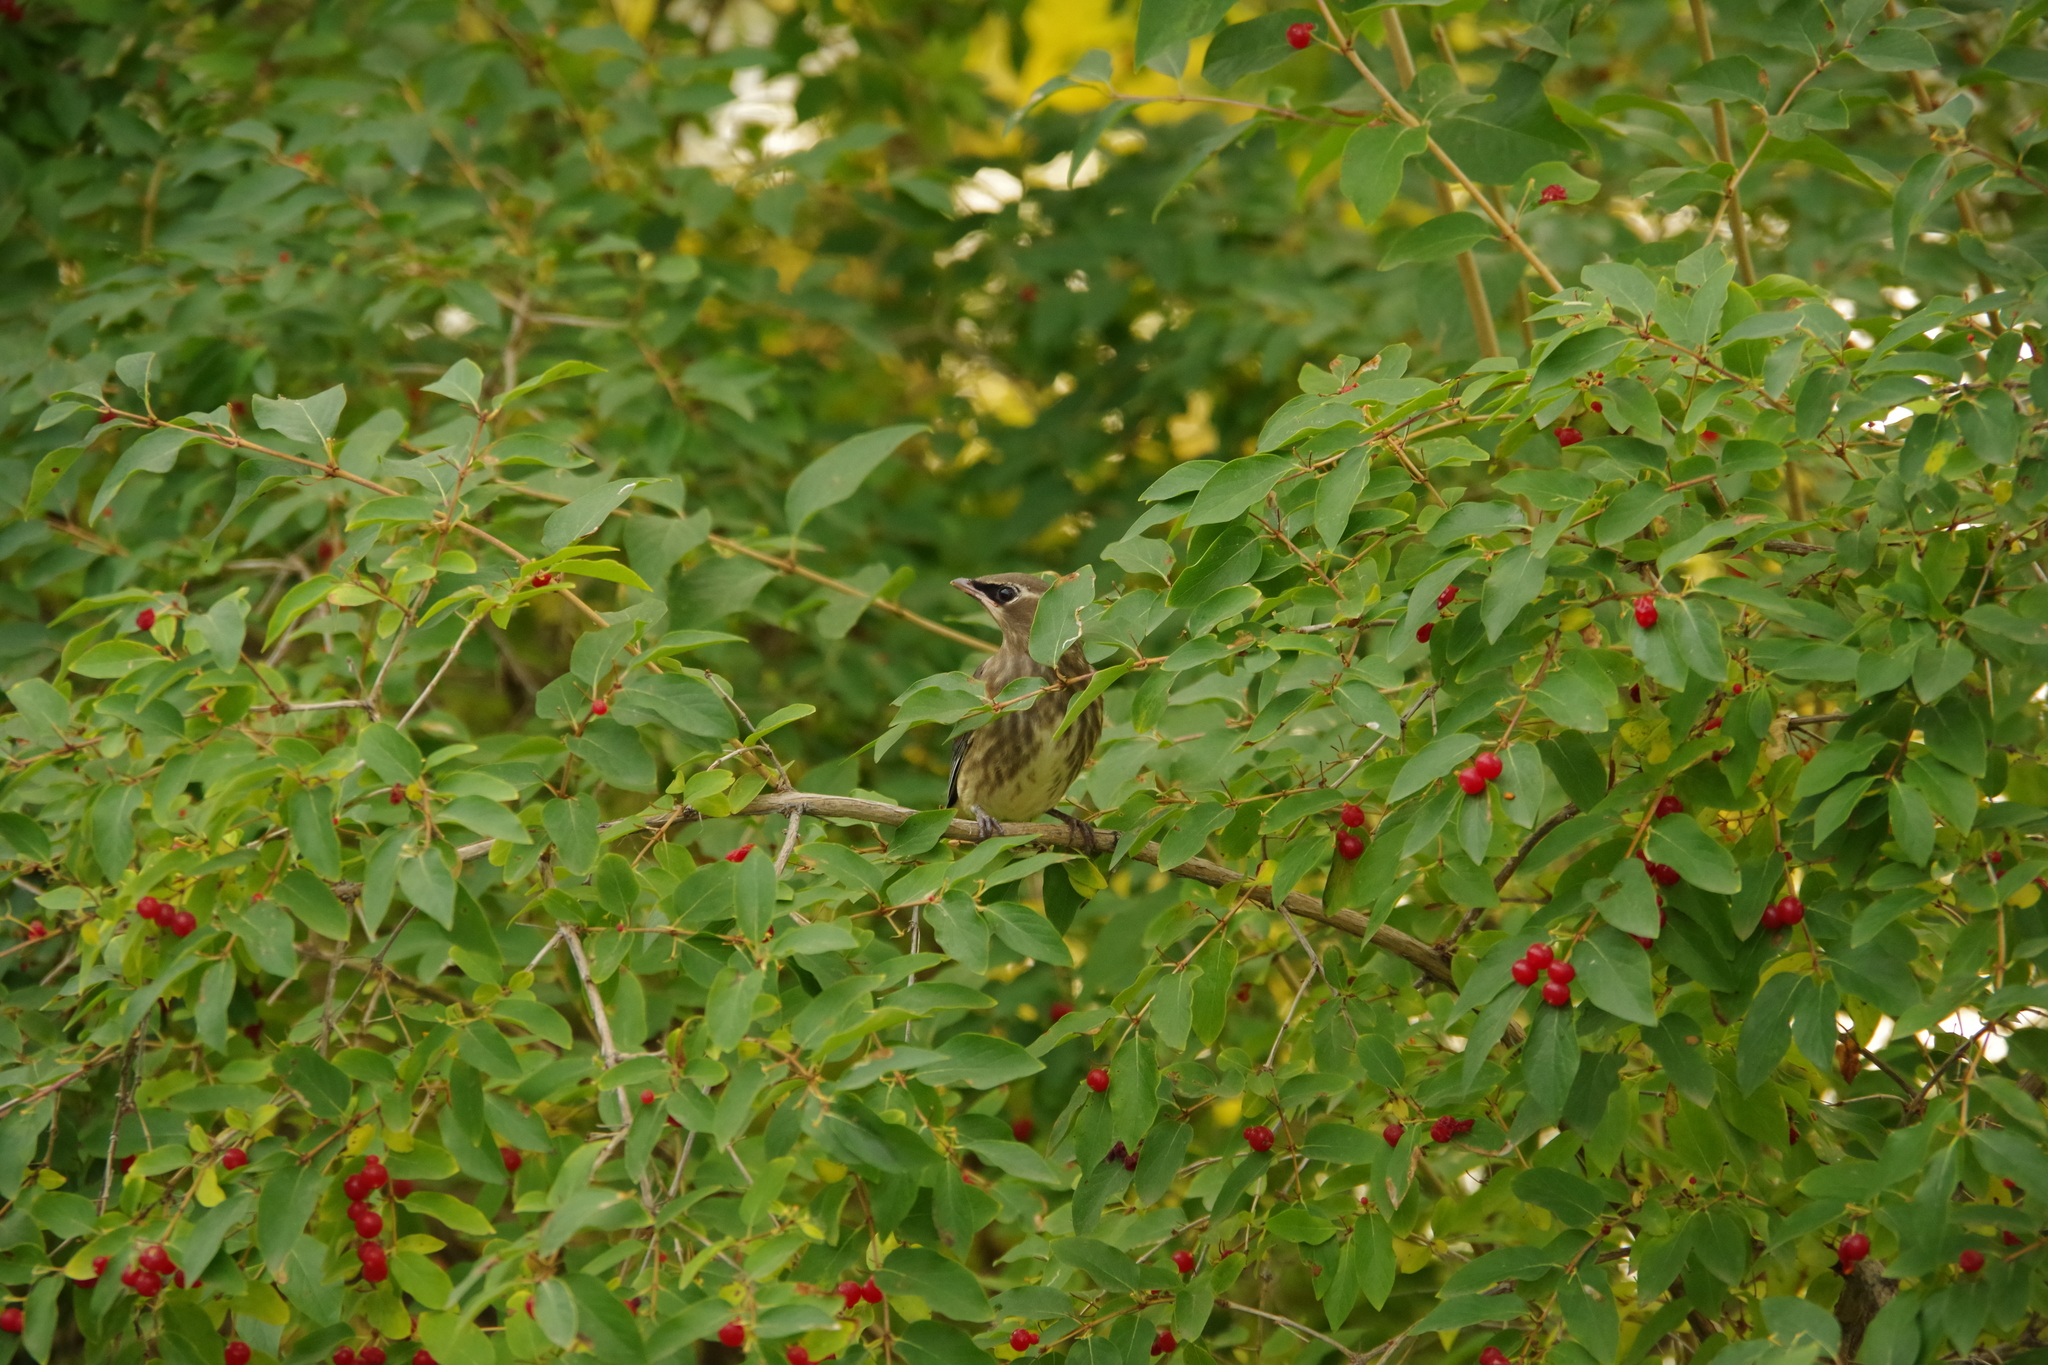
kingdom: Animalia
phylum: Chordata
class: Aves
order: Passeriformes
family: Bombycillidae
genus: Bombycilla
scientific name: Bombycilla cedrorum
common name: Cedar waxwing
